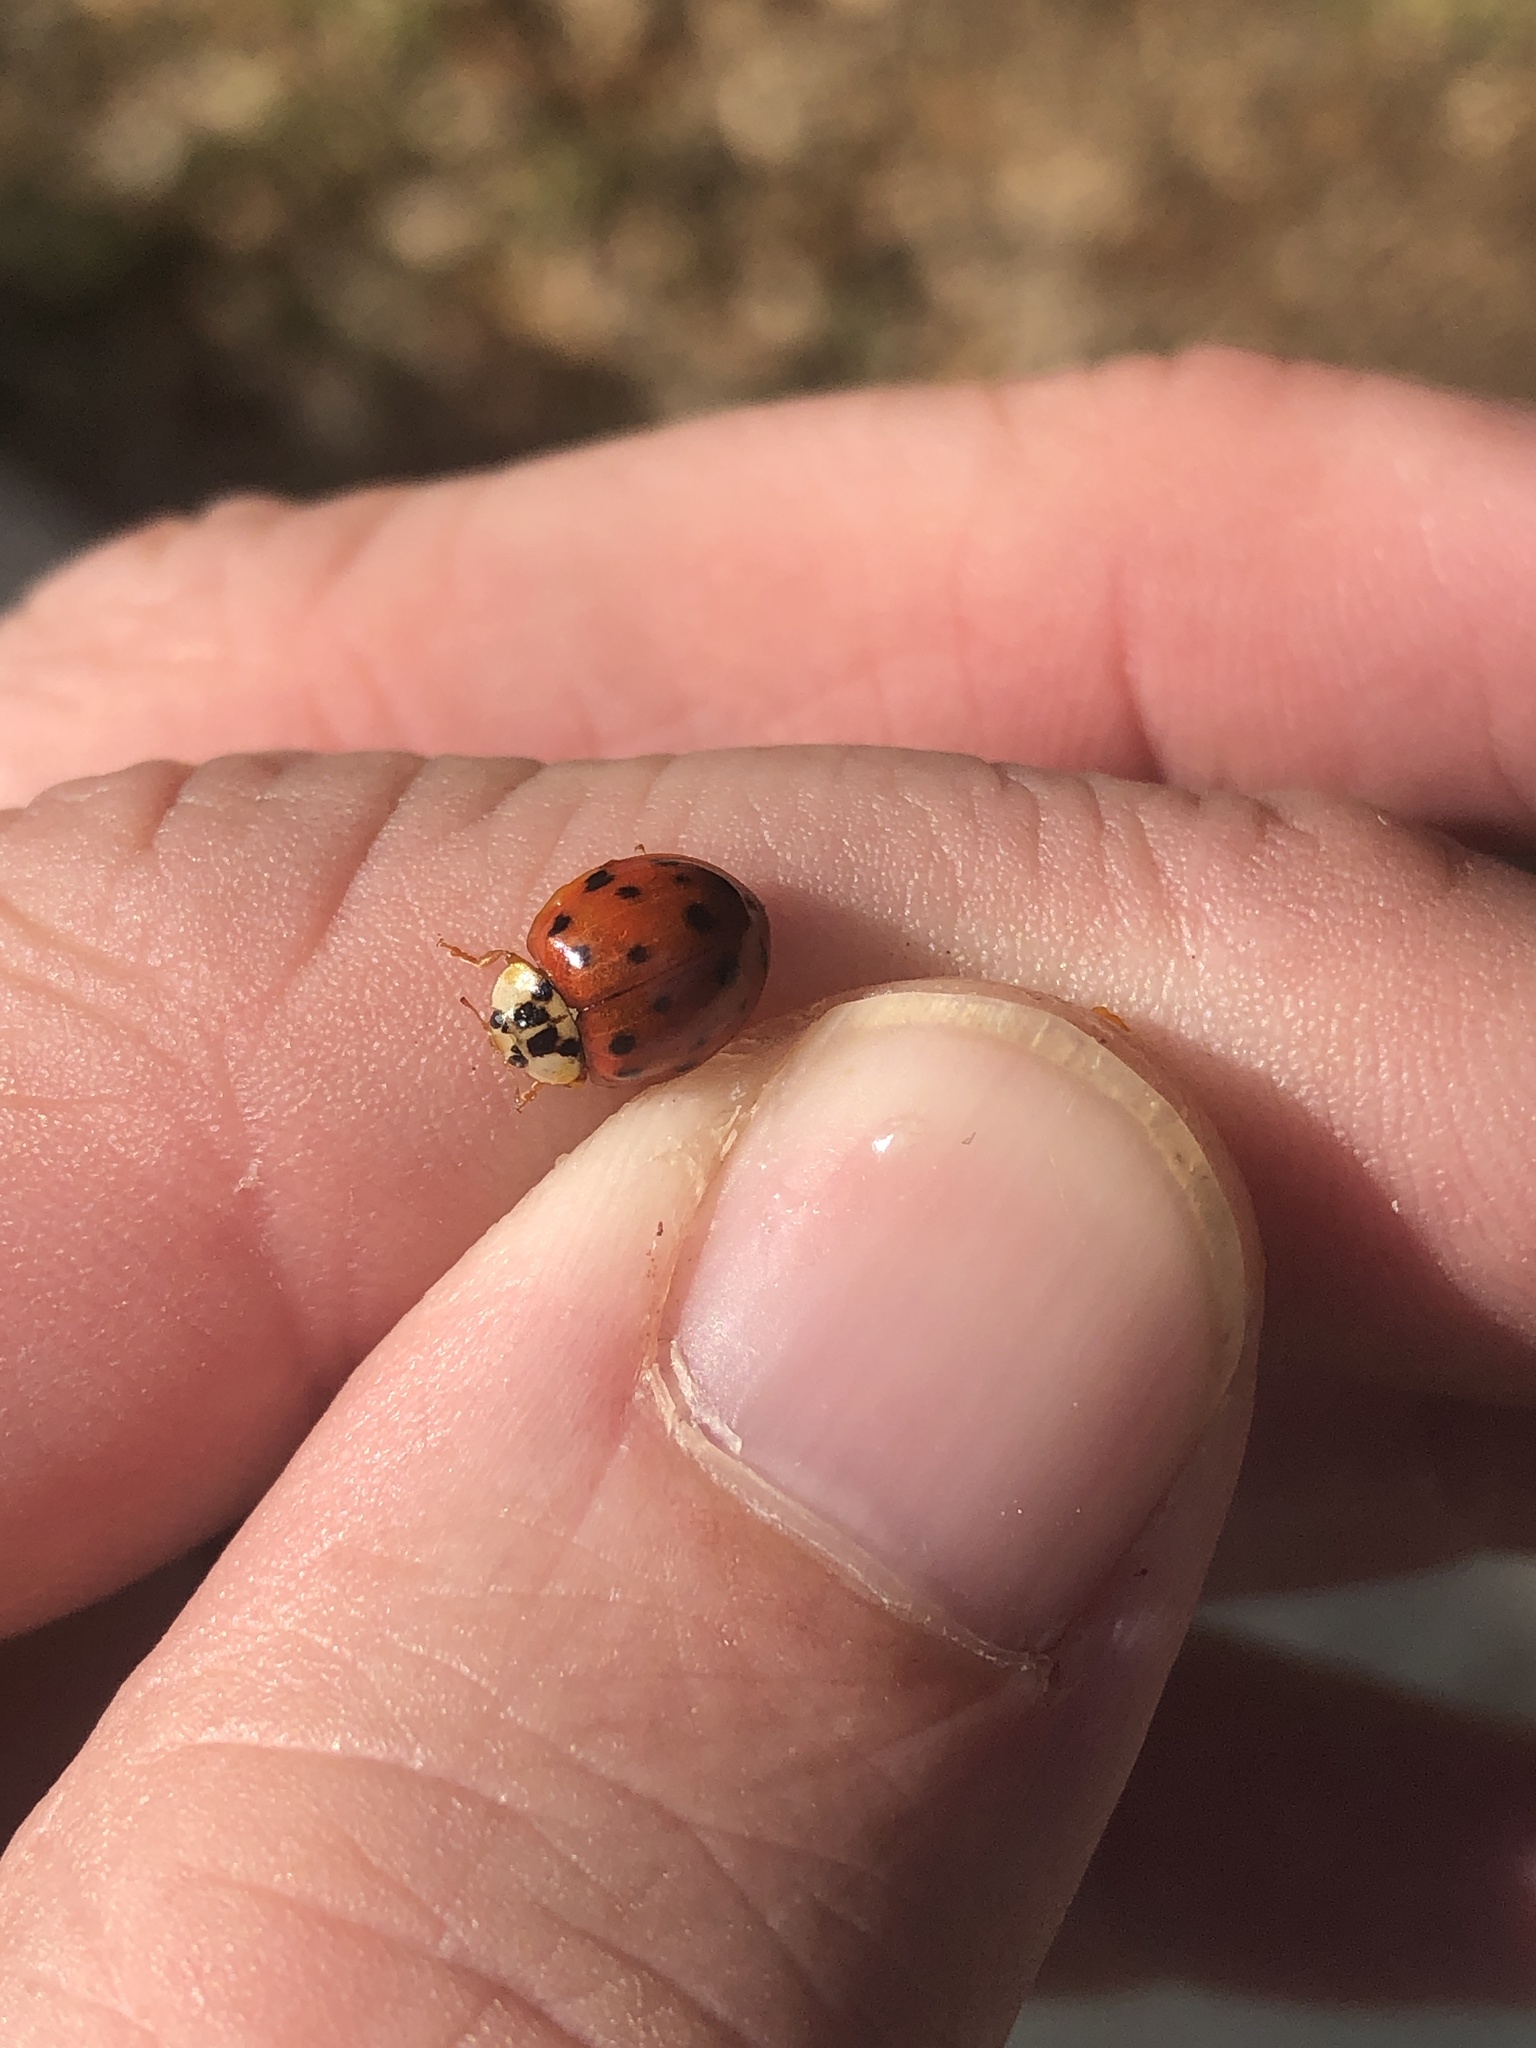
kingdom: Animalia
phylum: Arthropoda
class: Insecta
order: Coleoptera
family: Coccinellidae
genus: Harmonia
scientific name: Harmonia axyridis
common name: Harlequin ladybird
